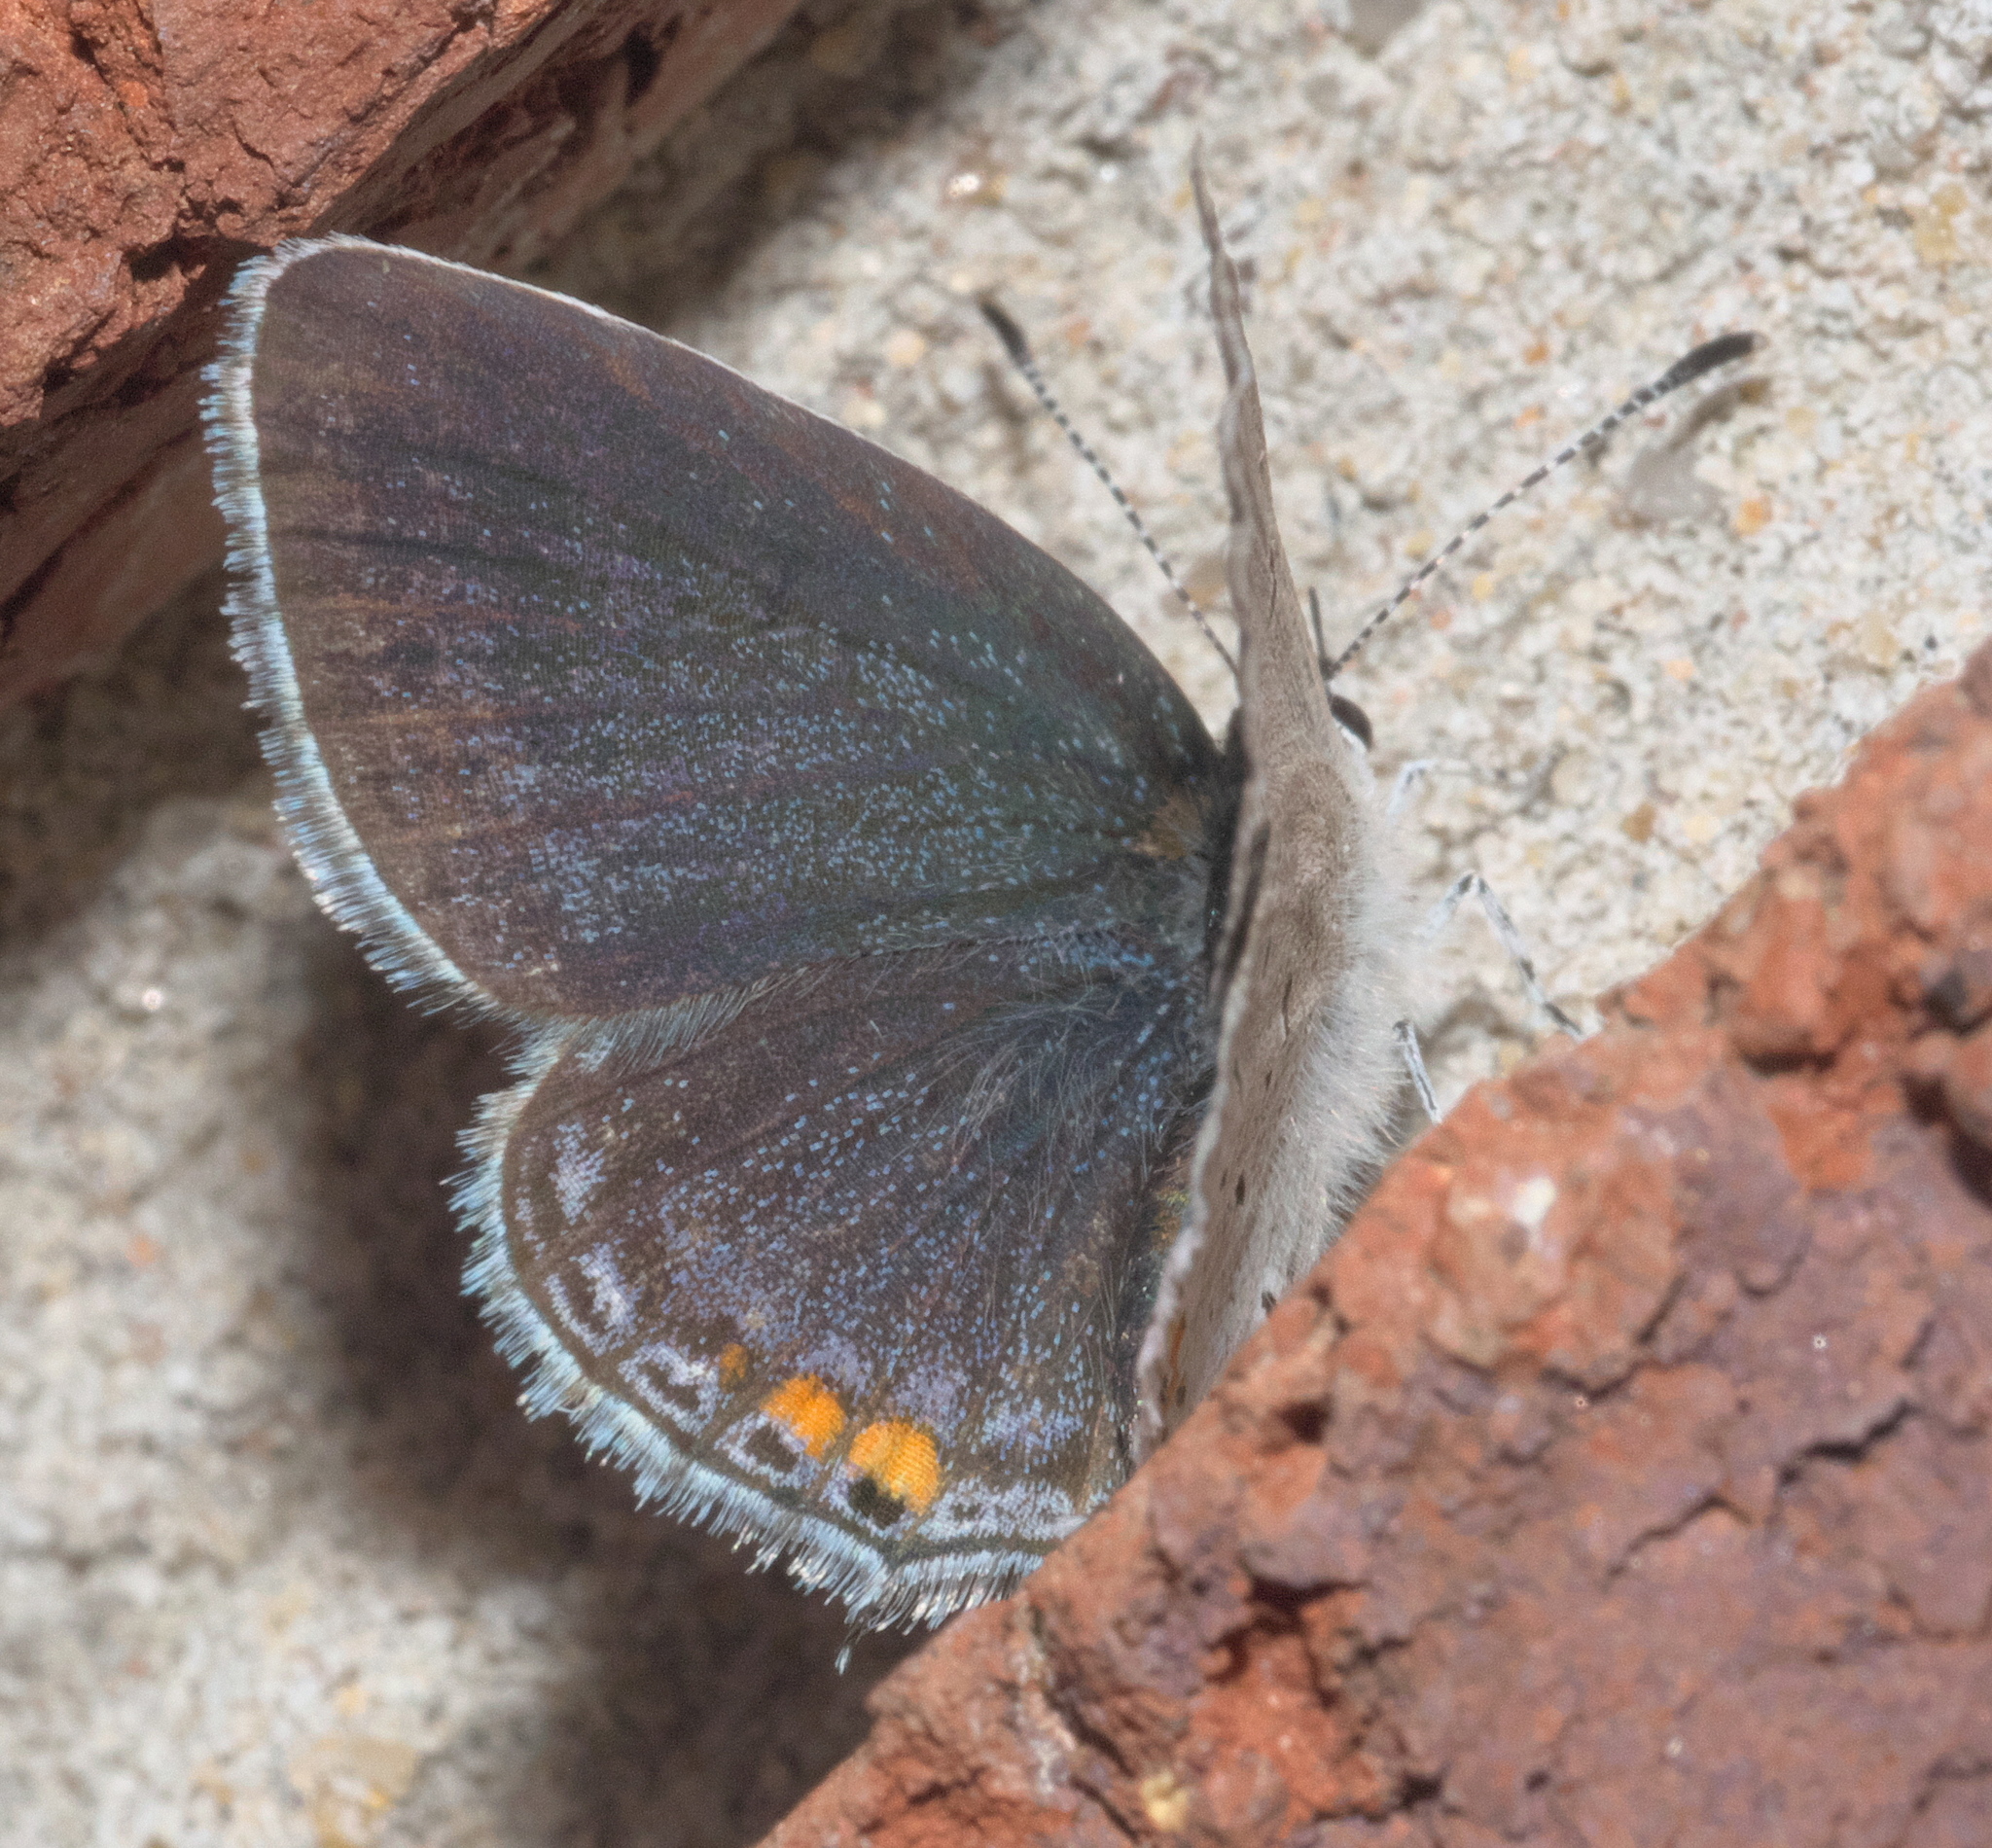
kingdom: Animalia
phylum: Arthropoda
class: Insecta
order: Lepidoptera
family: Lycaenidae
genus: Elkalyce
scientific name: Elkalyce comyntas
